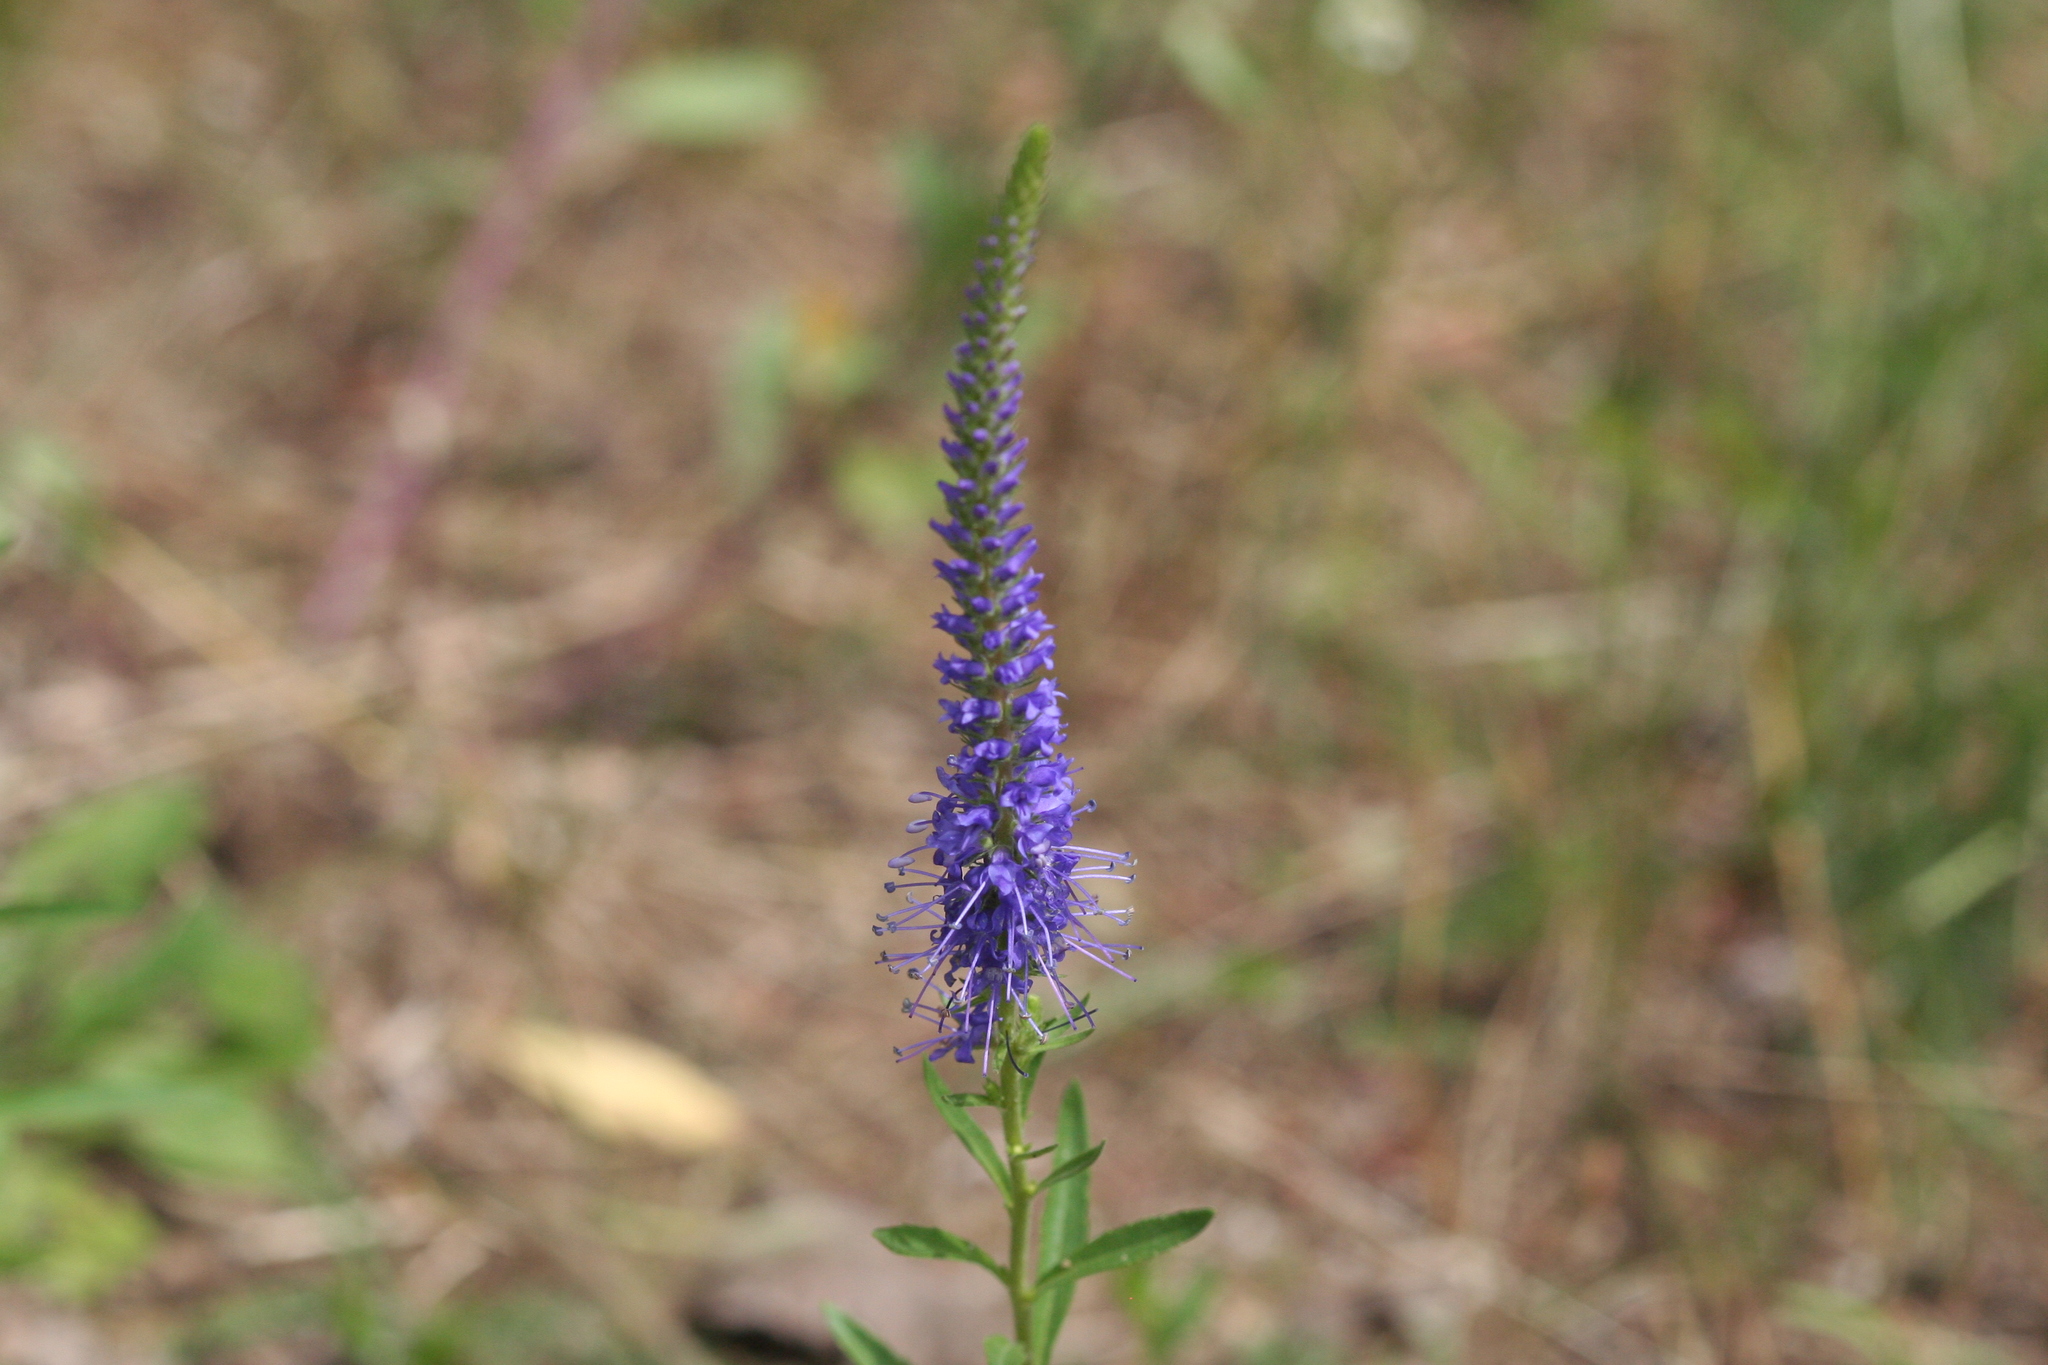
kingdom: Plantae
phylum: Tracheophyta
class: Magnoliopsida
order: Lamiales
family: Plantaginaceae
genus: Veronica
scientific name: Veronica spicata
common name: Spiked speedwell
